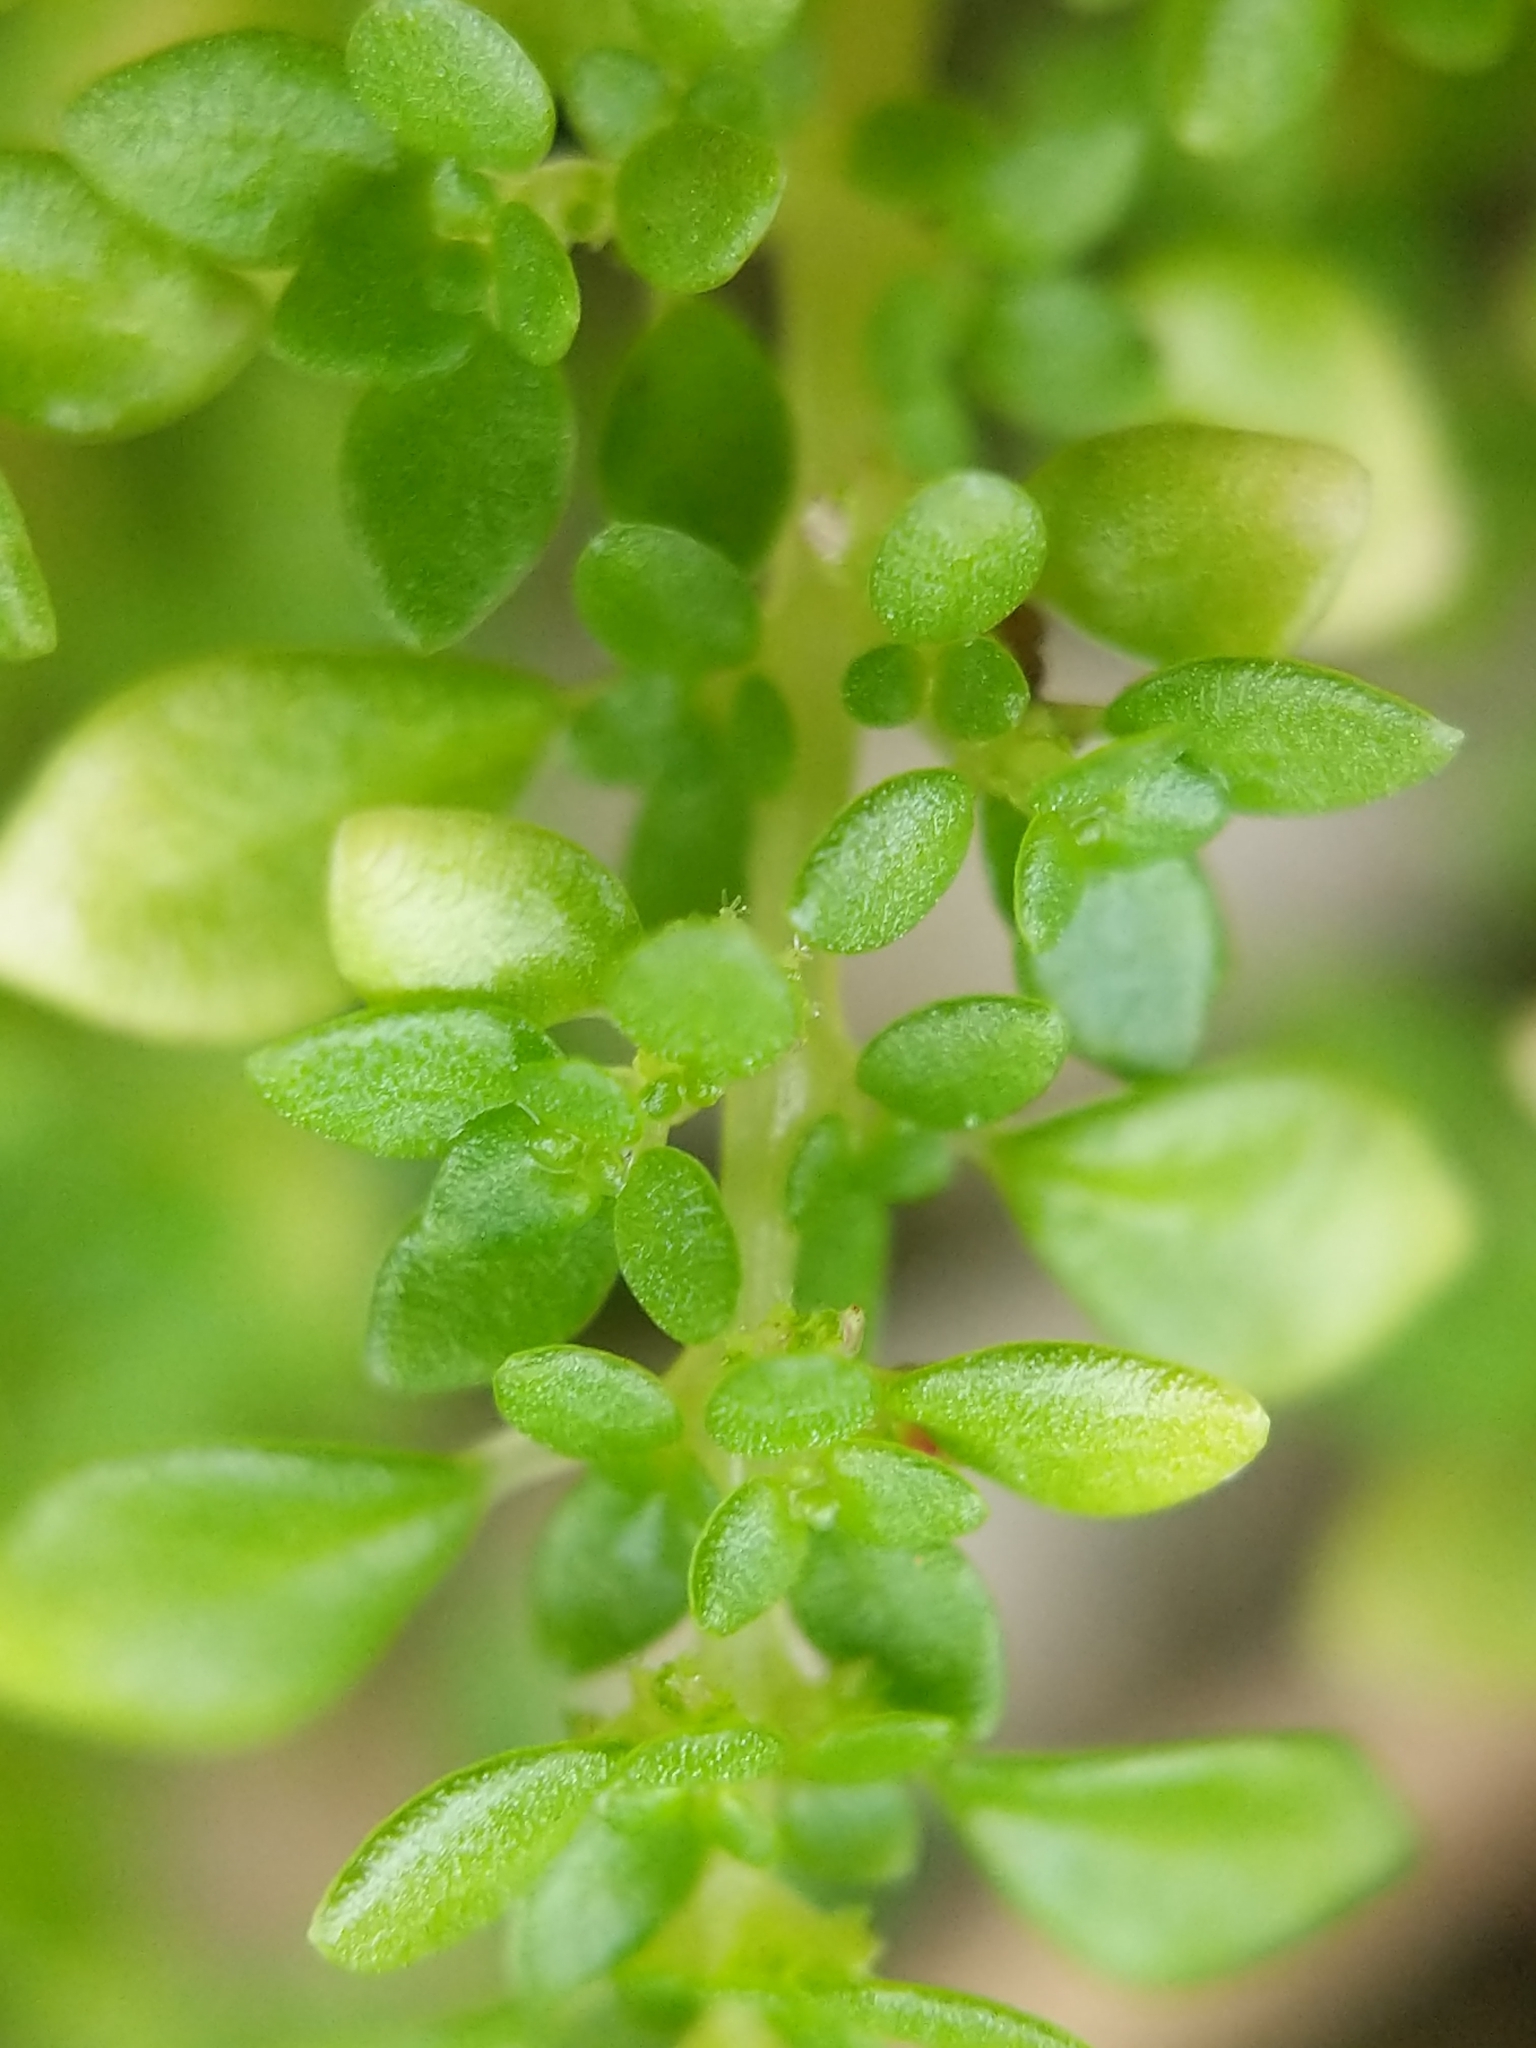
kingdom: Plantae
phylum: Tracheophyta
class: Magnoliopsida
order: Rosales
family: Urticaceae
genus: Pilea
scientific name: Pilea microphylla
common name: Artillery-plant
